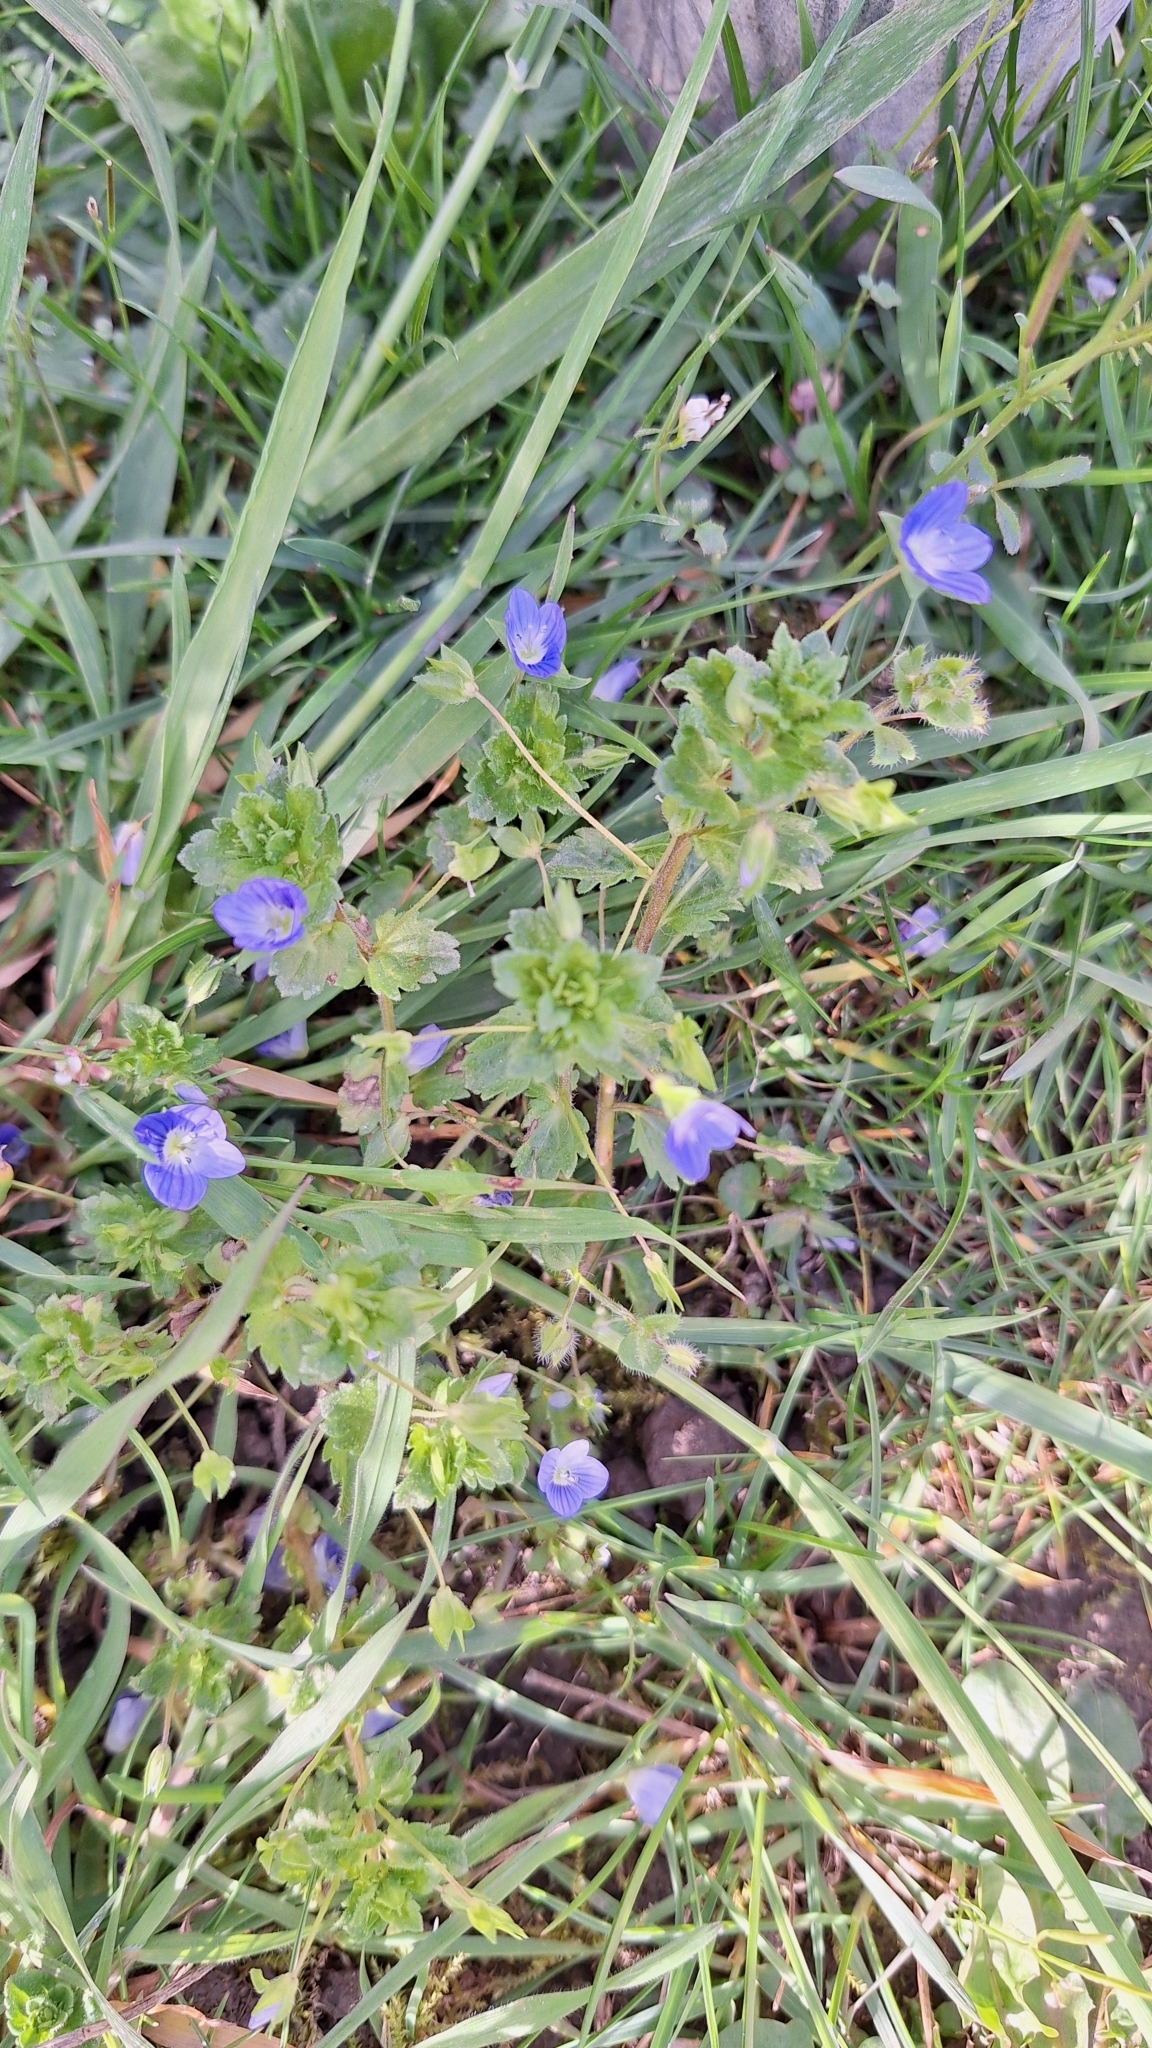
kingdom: Plantae
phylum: Tracheophyta
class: Magnoliopsida
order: Lamiales
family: Plantaginaceae
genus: Veronica
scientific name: Veronica persica
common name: Common field-speedwell
